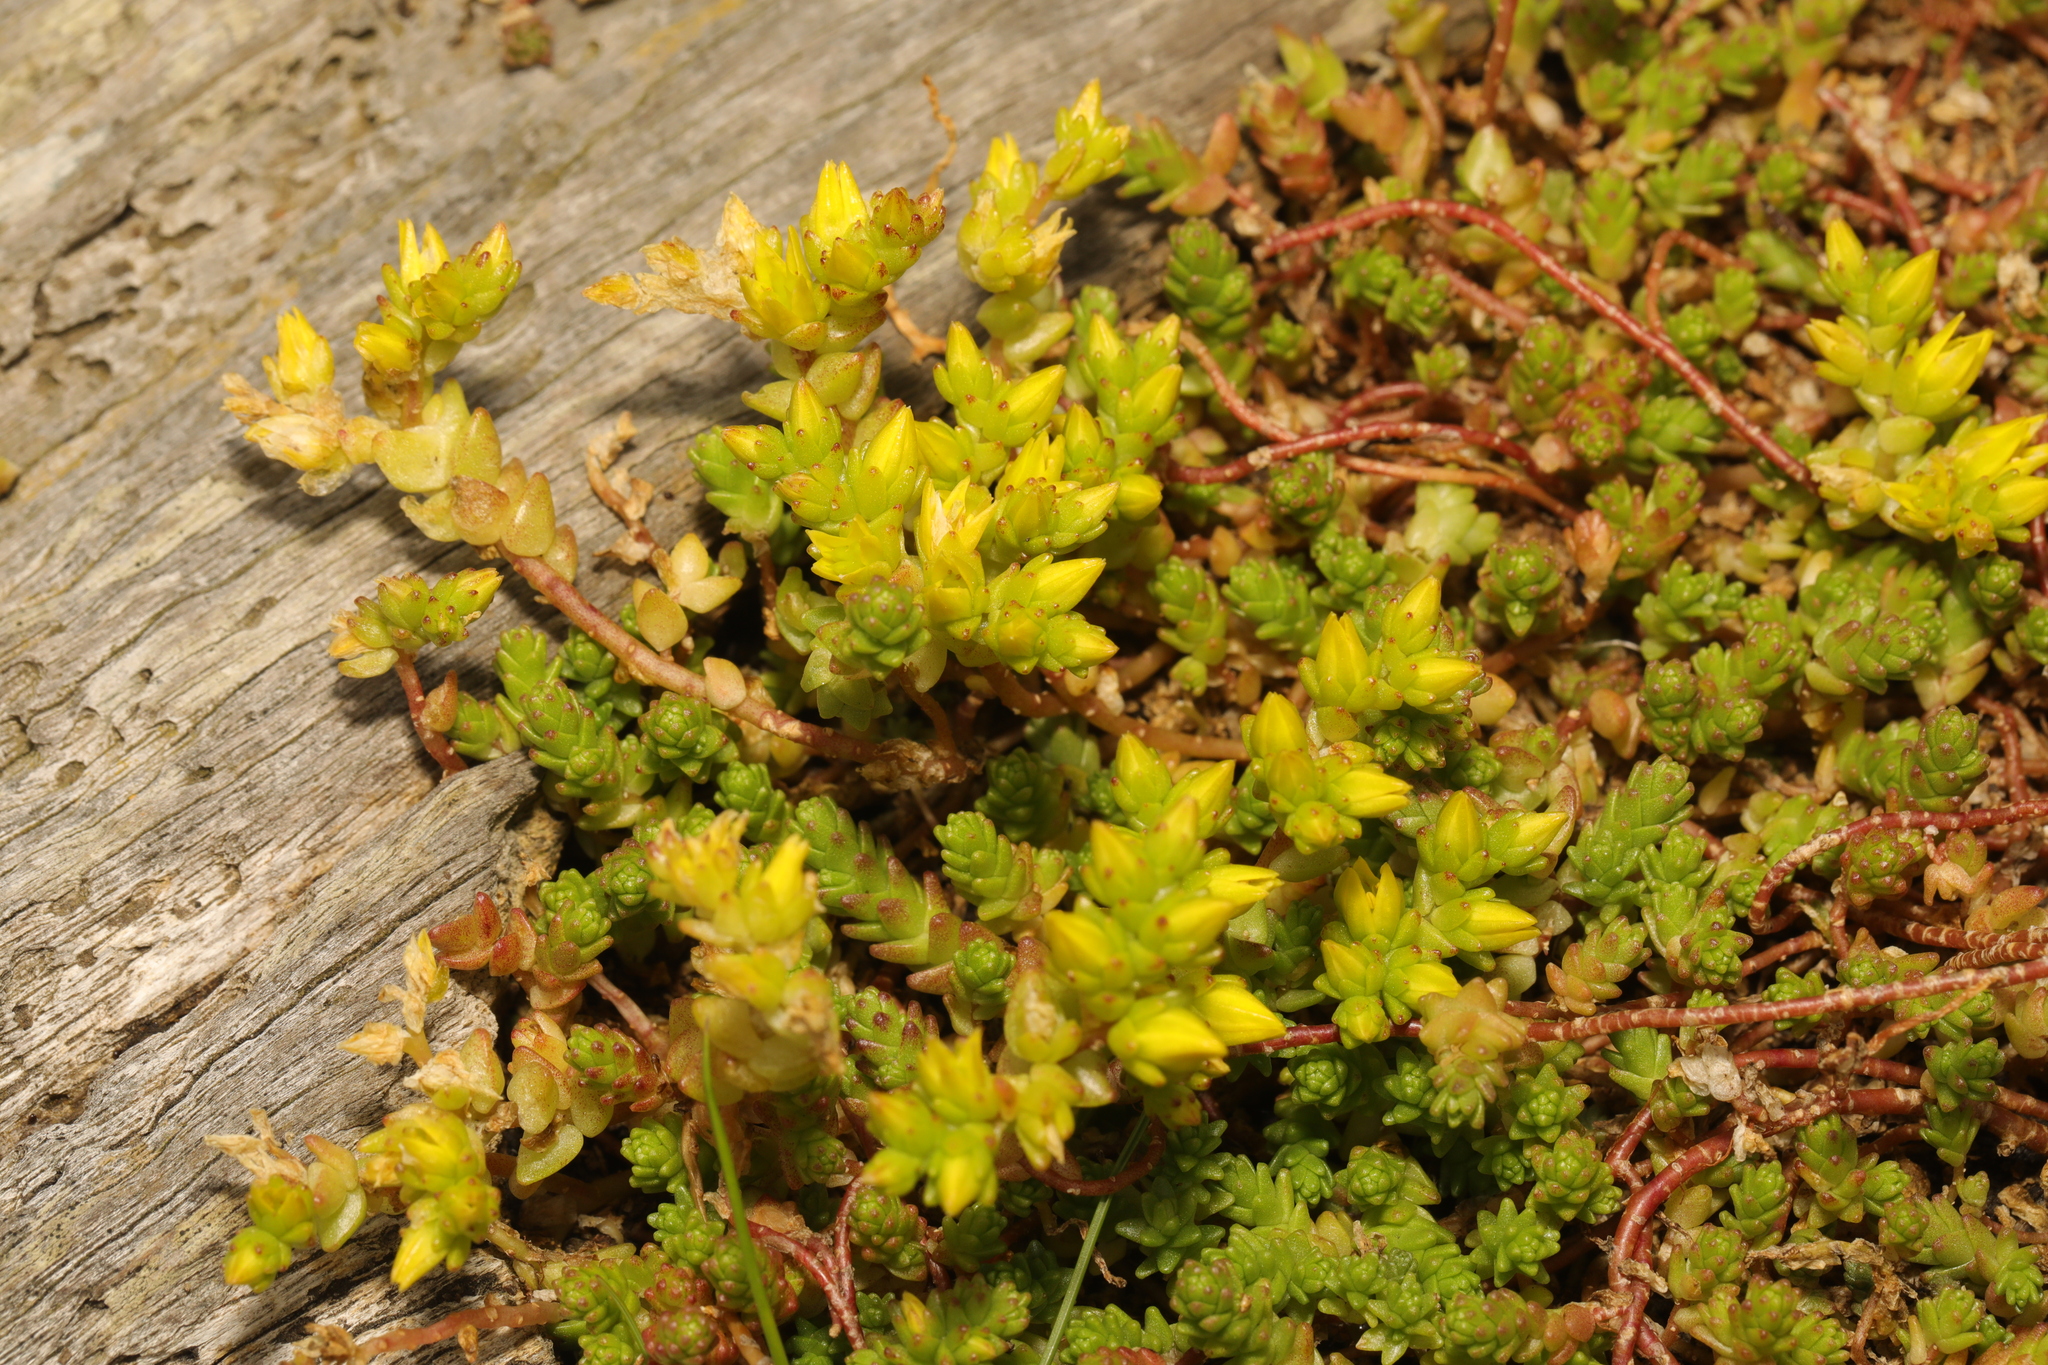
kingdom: Plantae
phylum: Tracheophyta
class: Magnoliopsida
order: Saxifragales
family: Crassulaceae
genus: Sedum
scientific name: Sedum acre
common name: Biting stonecrop
